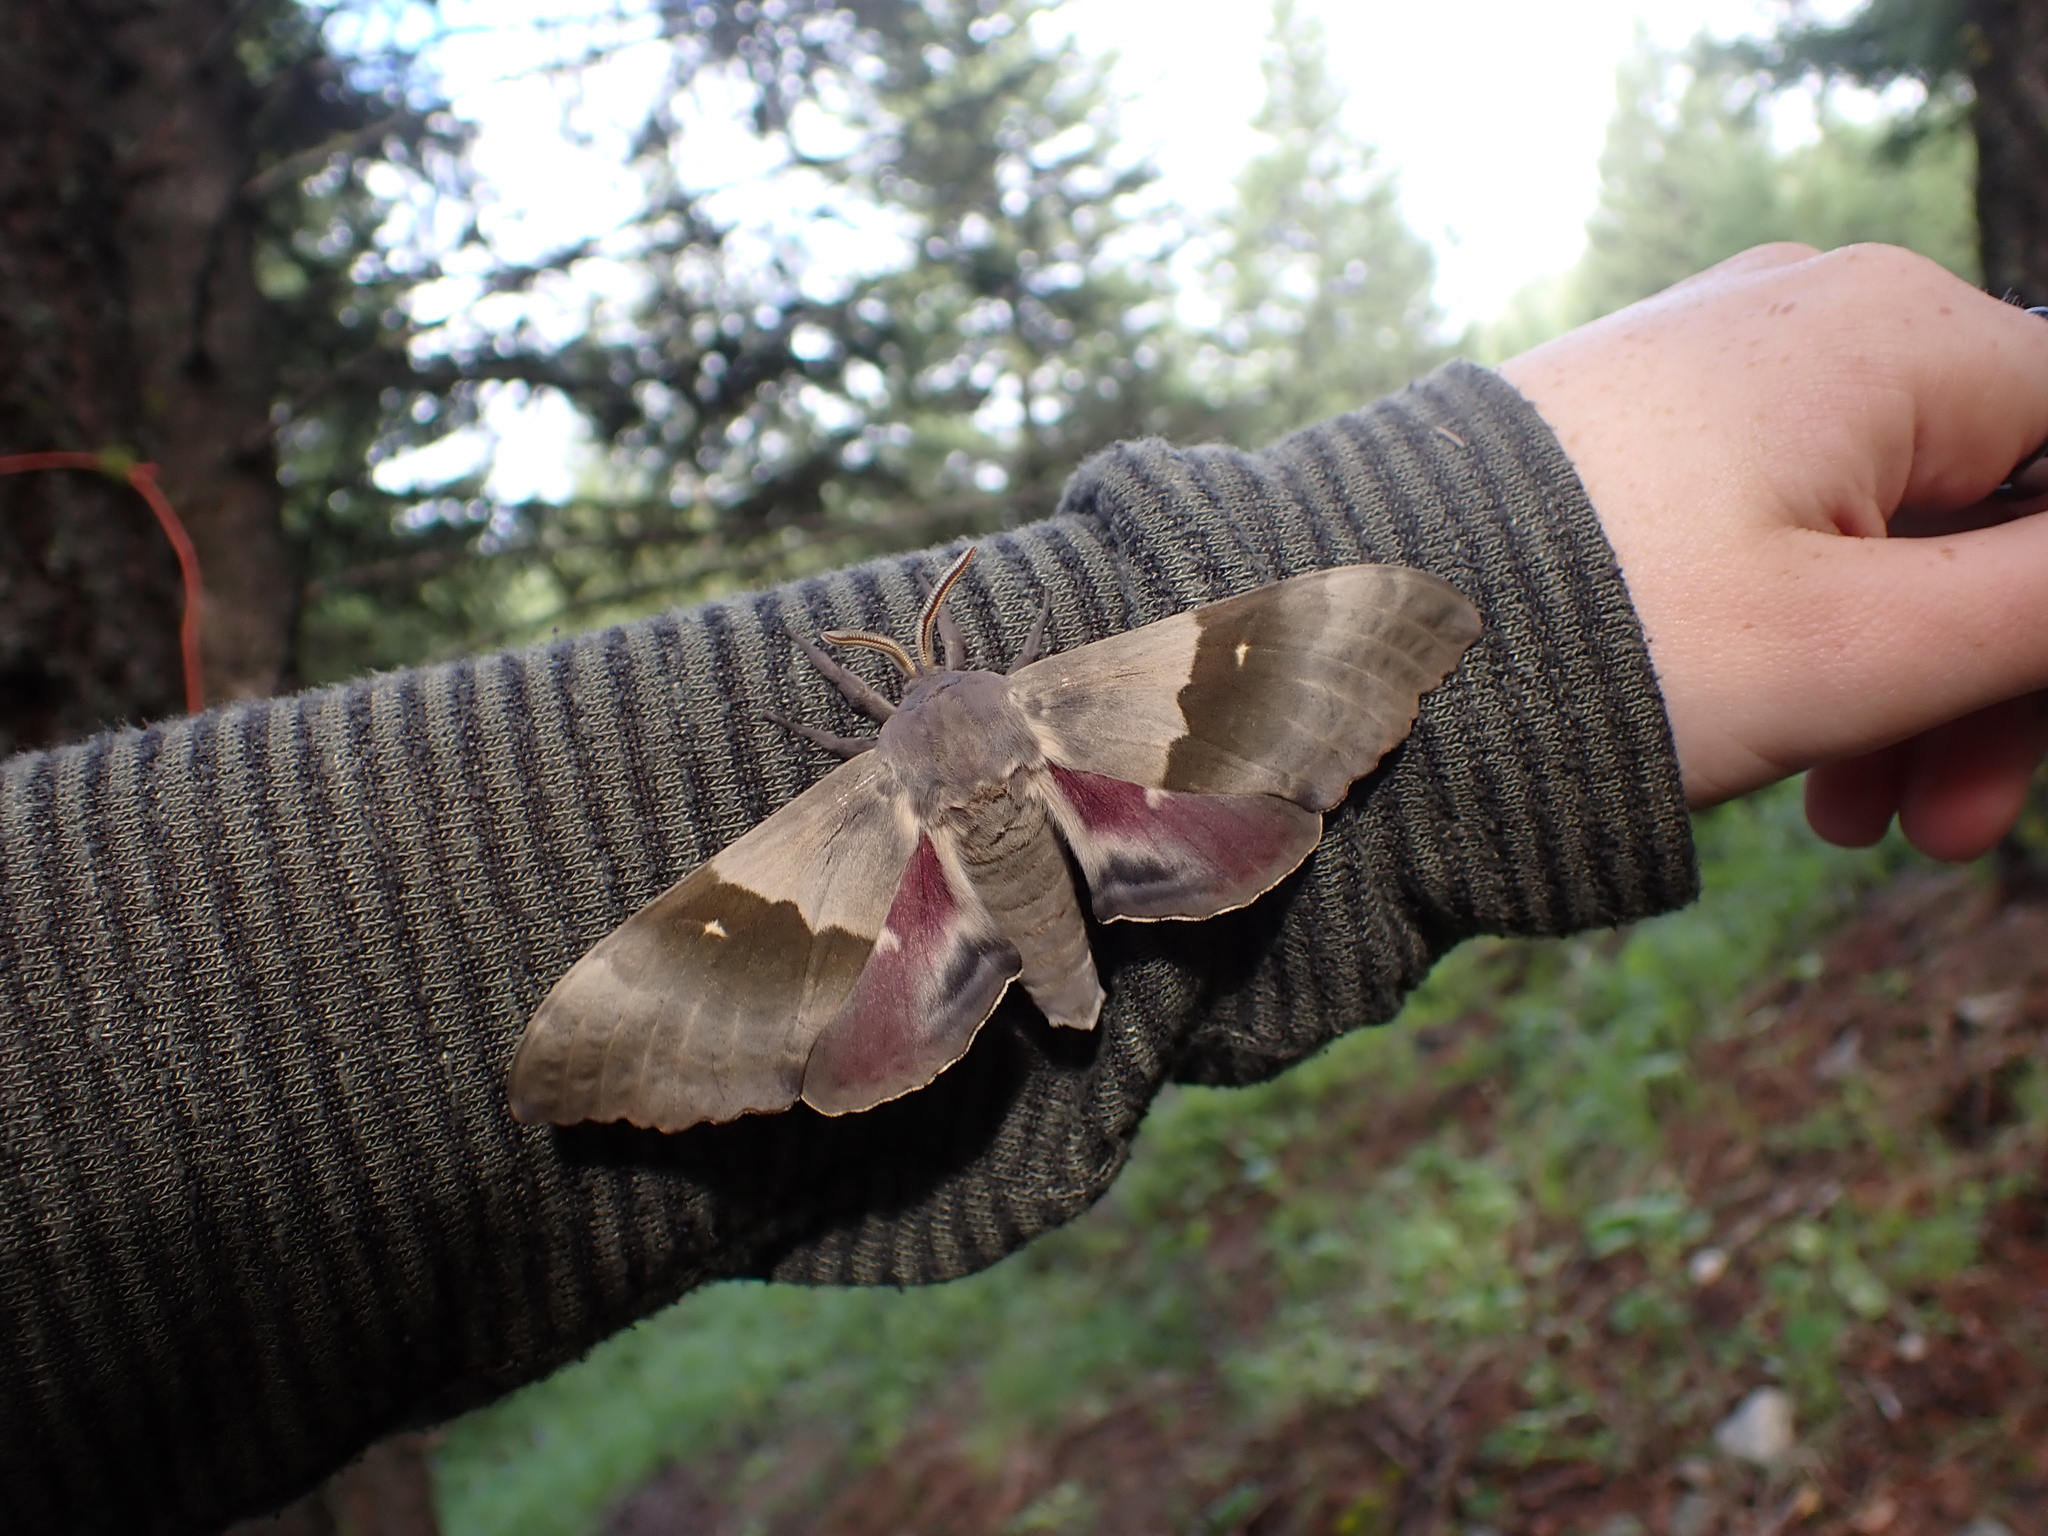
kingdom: Animalia
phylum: Arthropoda
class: Insecta
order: Lepidoptera
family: Sphingidae
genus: Pachysphinx
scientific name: Pachysphinx modesta
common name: Big poplar sphinx
